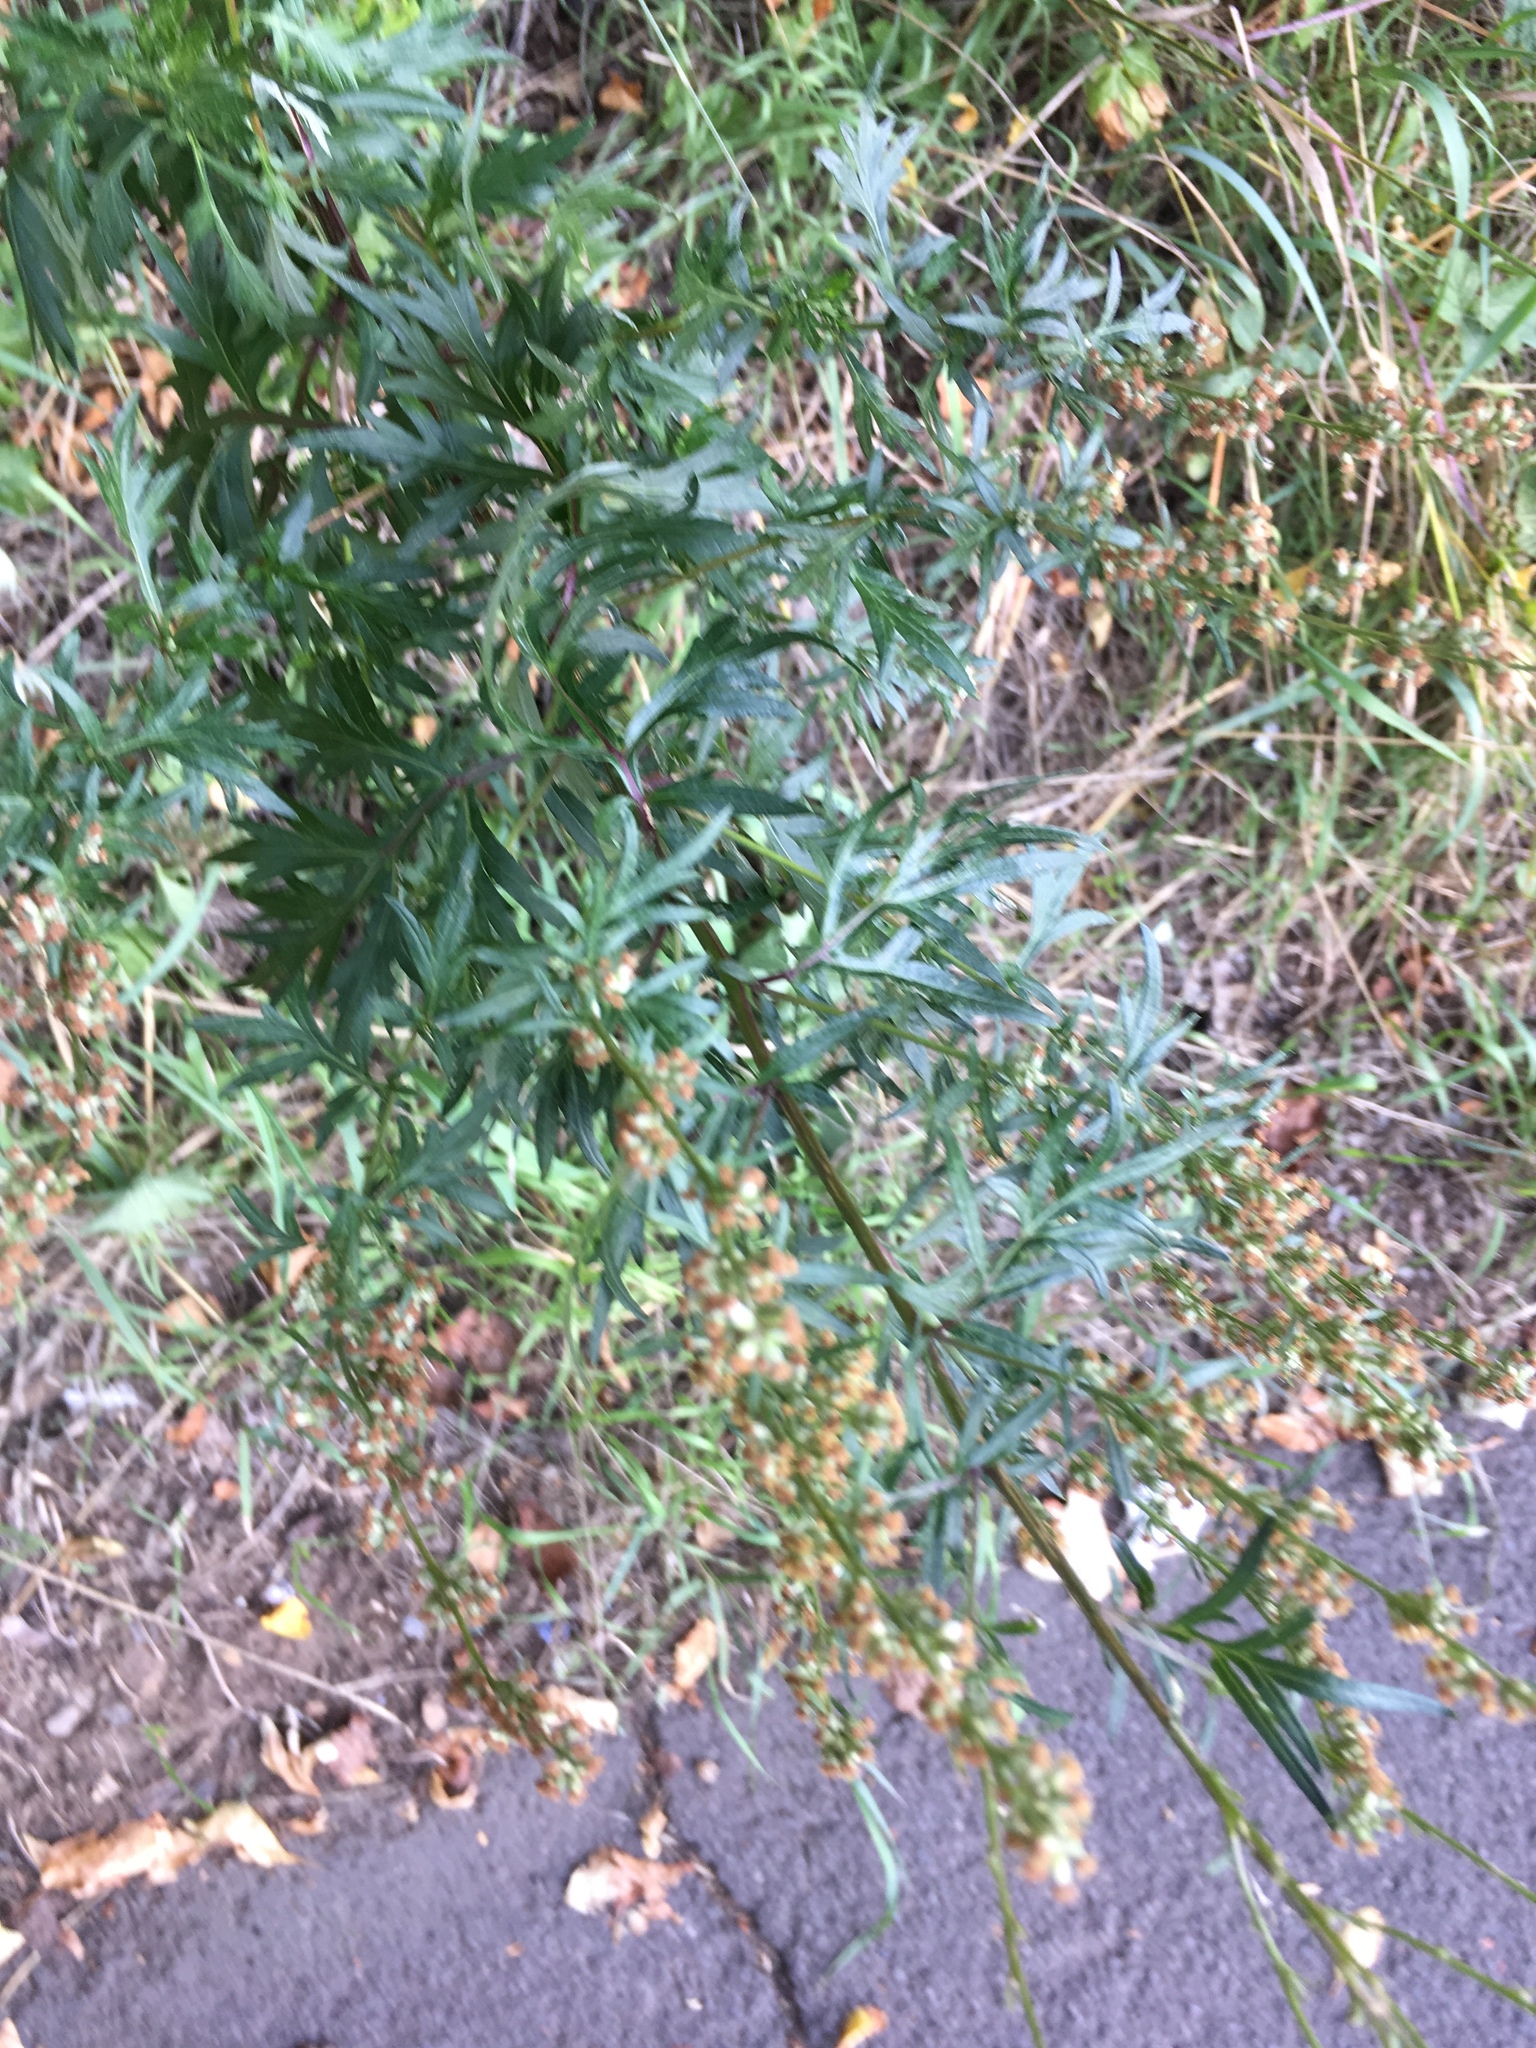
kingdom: Plantae
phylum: Tracheophyta
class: Magnoliopsida
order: Asterales
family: Asteraceae
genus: Artemisia
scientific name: Artemisia vulgaris
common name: Mugwort
